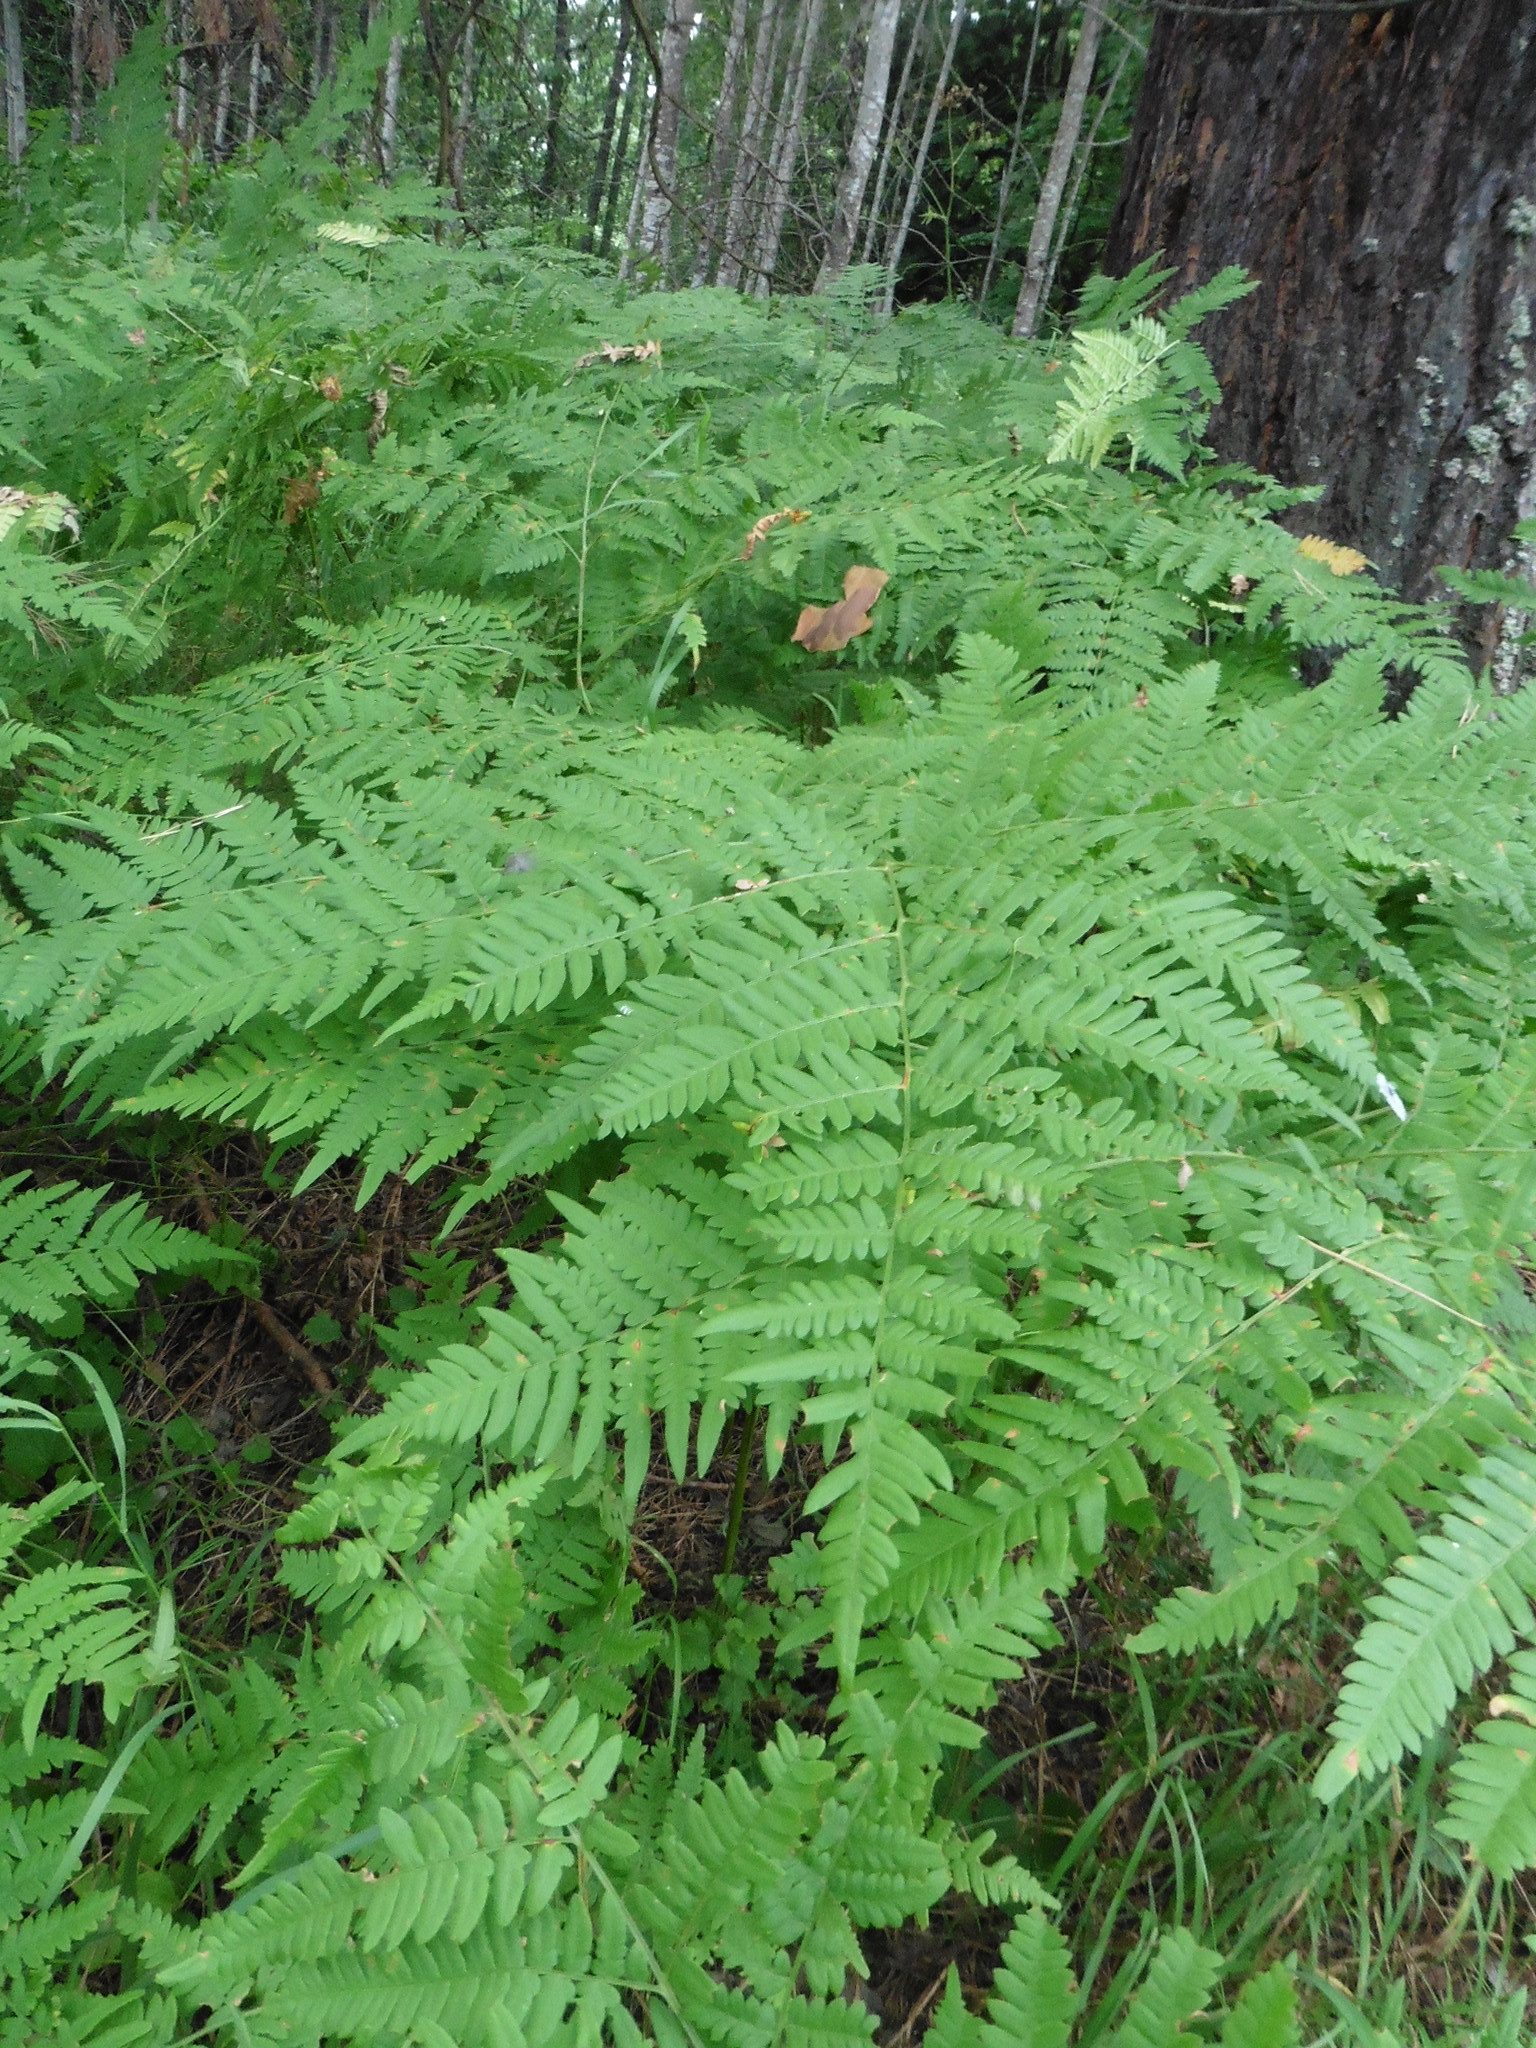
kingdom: Plantae
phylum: Tracheophyta
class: Polypodiopsida
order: Polypodiales
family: Dennstaedtiaceae
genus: Pteridium
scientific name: Pteridium aquilinum
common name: Bracken
